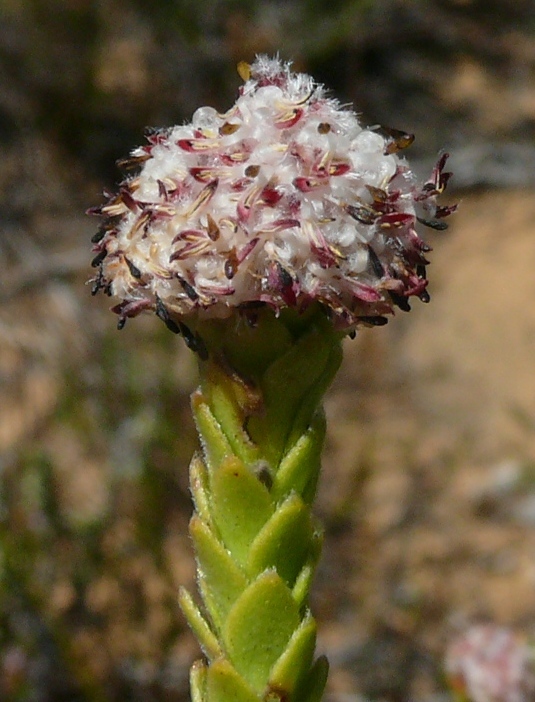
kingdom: Plantae
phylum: Tracheophyta
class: Magnoliopsida
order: Proteales
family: Proteaceae
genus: Leucadendron
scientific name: Leucadendron dubium
